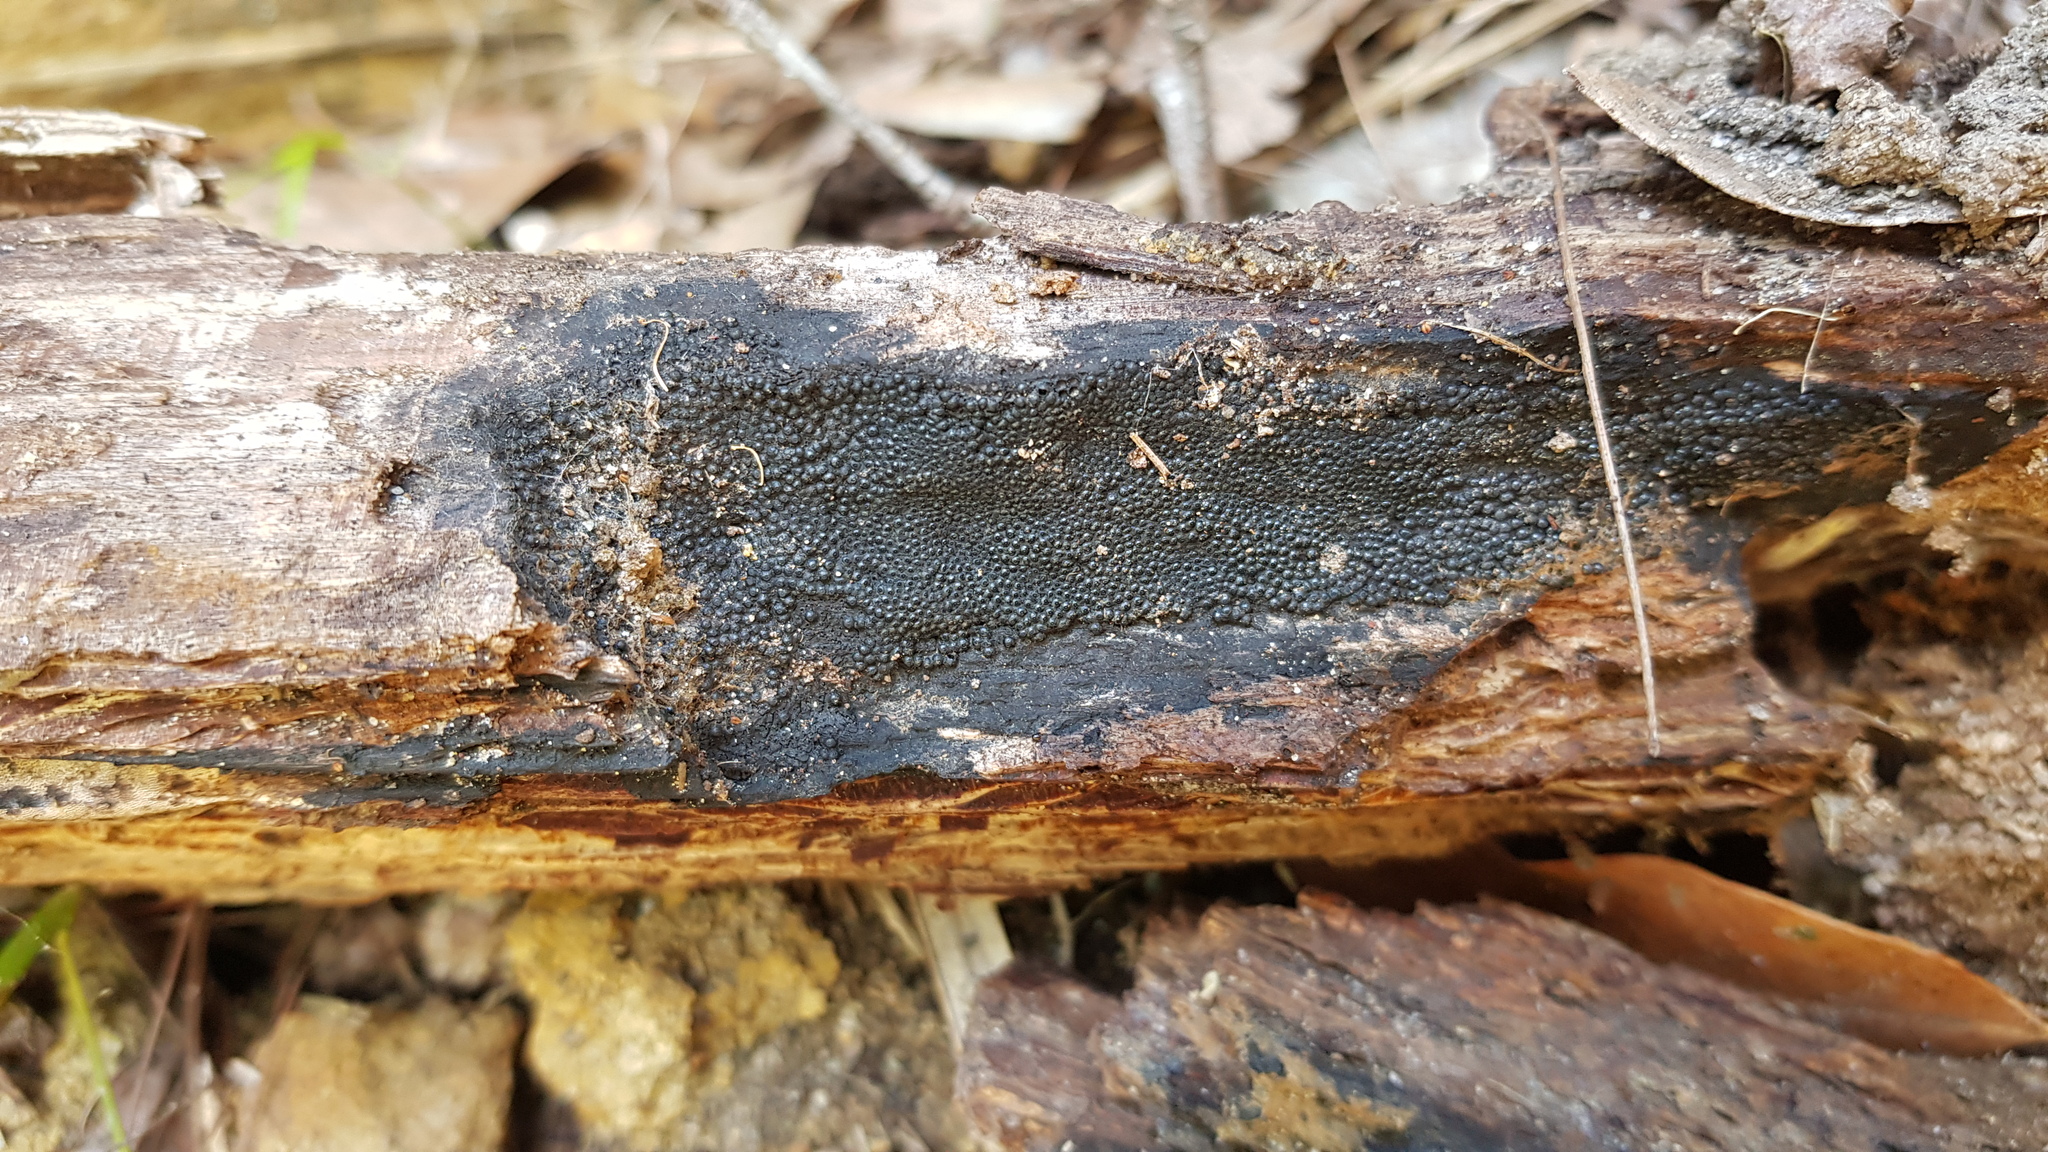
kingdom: Fungi
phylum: Ascomycota
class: Sordariomycetes
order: Xylariales
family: Hypoxylaceae
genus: Annulohypoxylon
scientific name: Annulohypoxylon bovei
